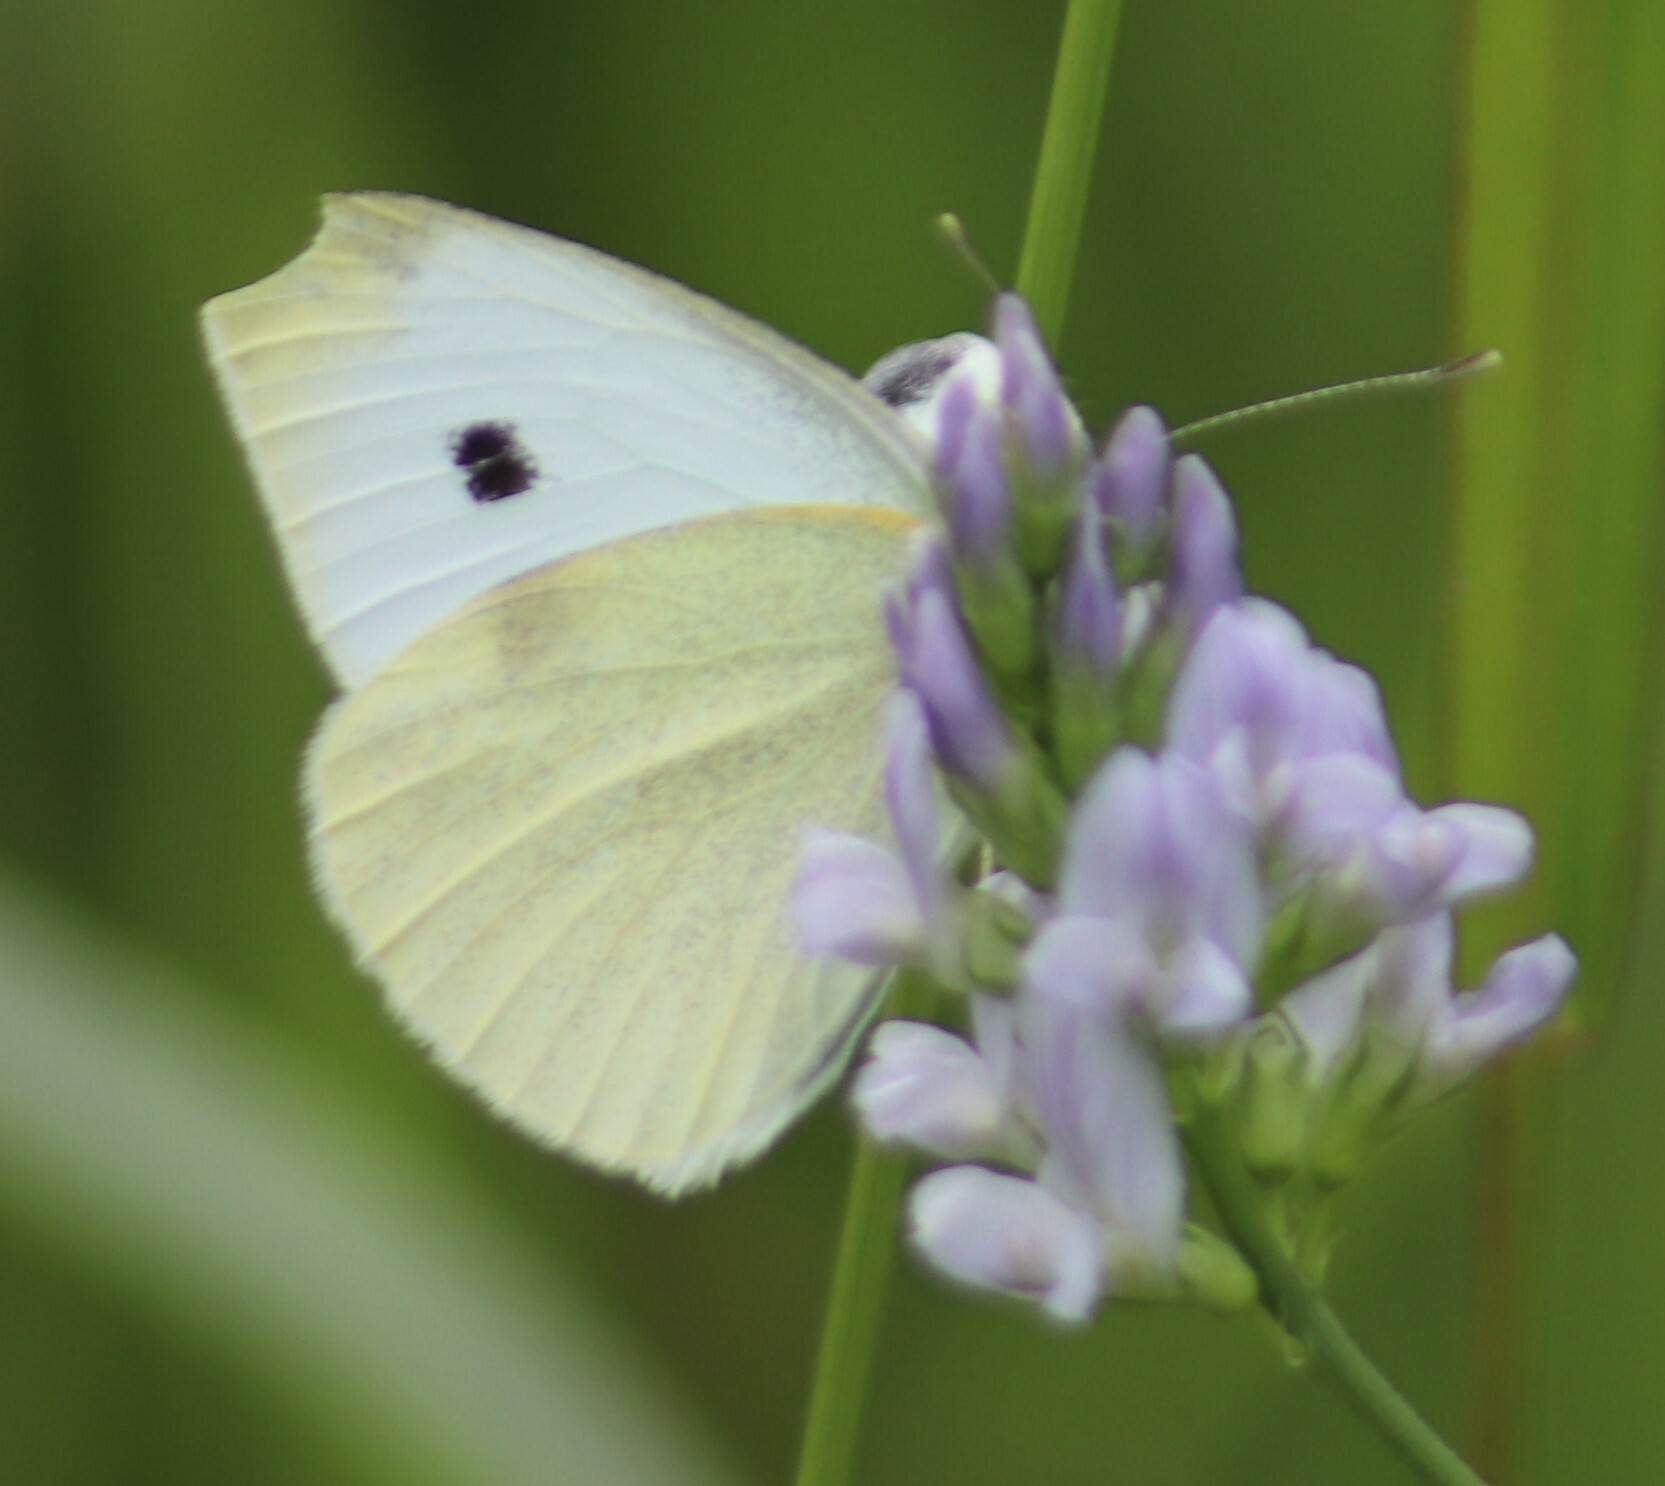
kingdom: Animalia
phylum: Arthropoda
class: Insecta
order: Lepidoptera
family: Pieridae
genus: Pieris
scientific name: Pieris rapae
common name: Small white
